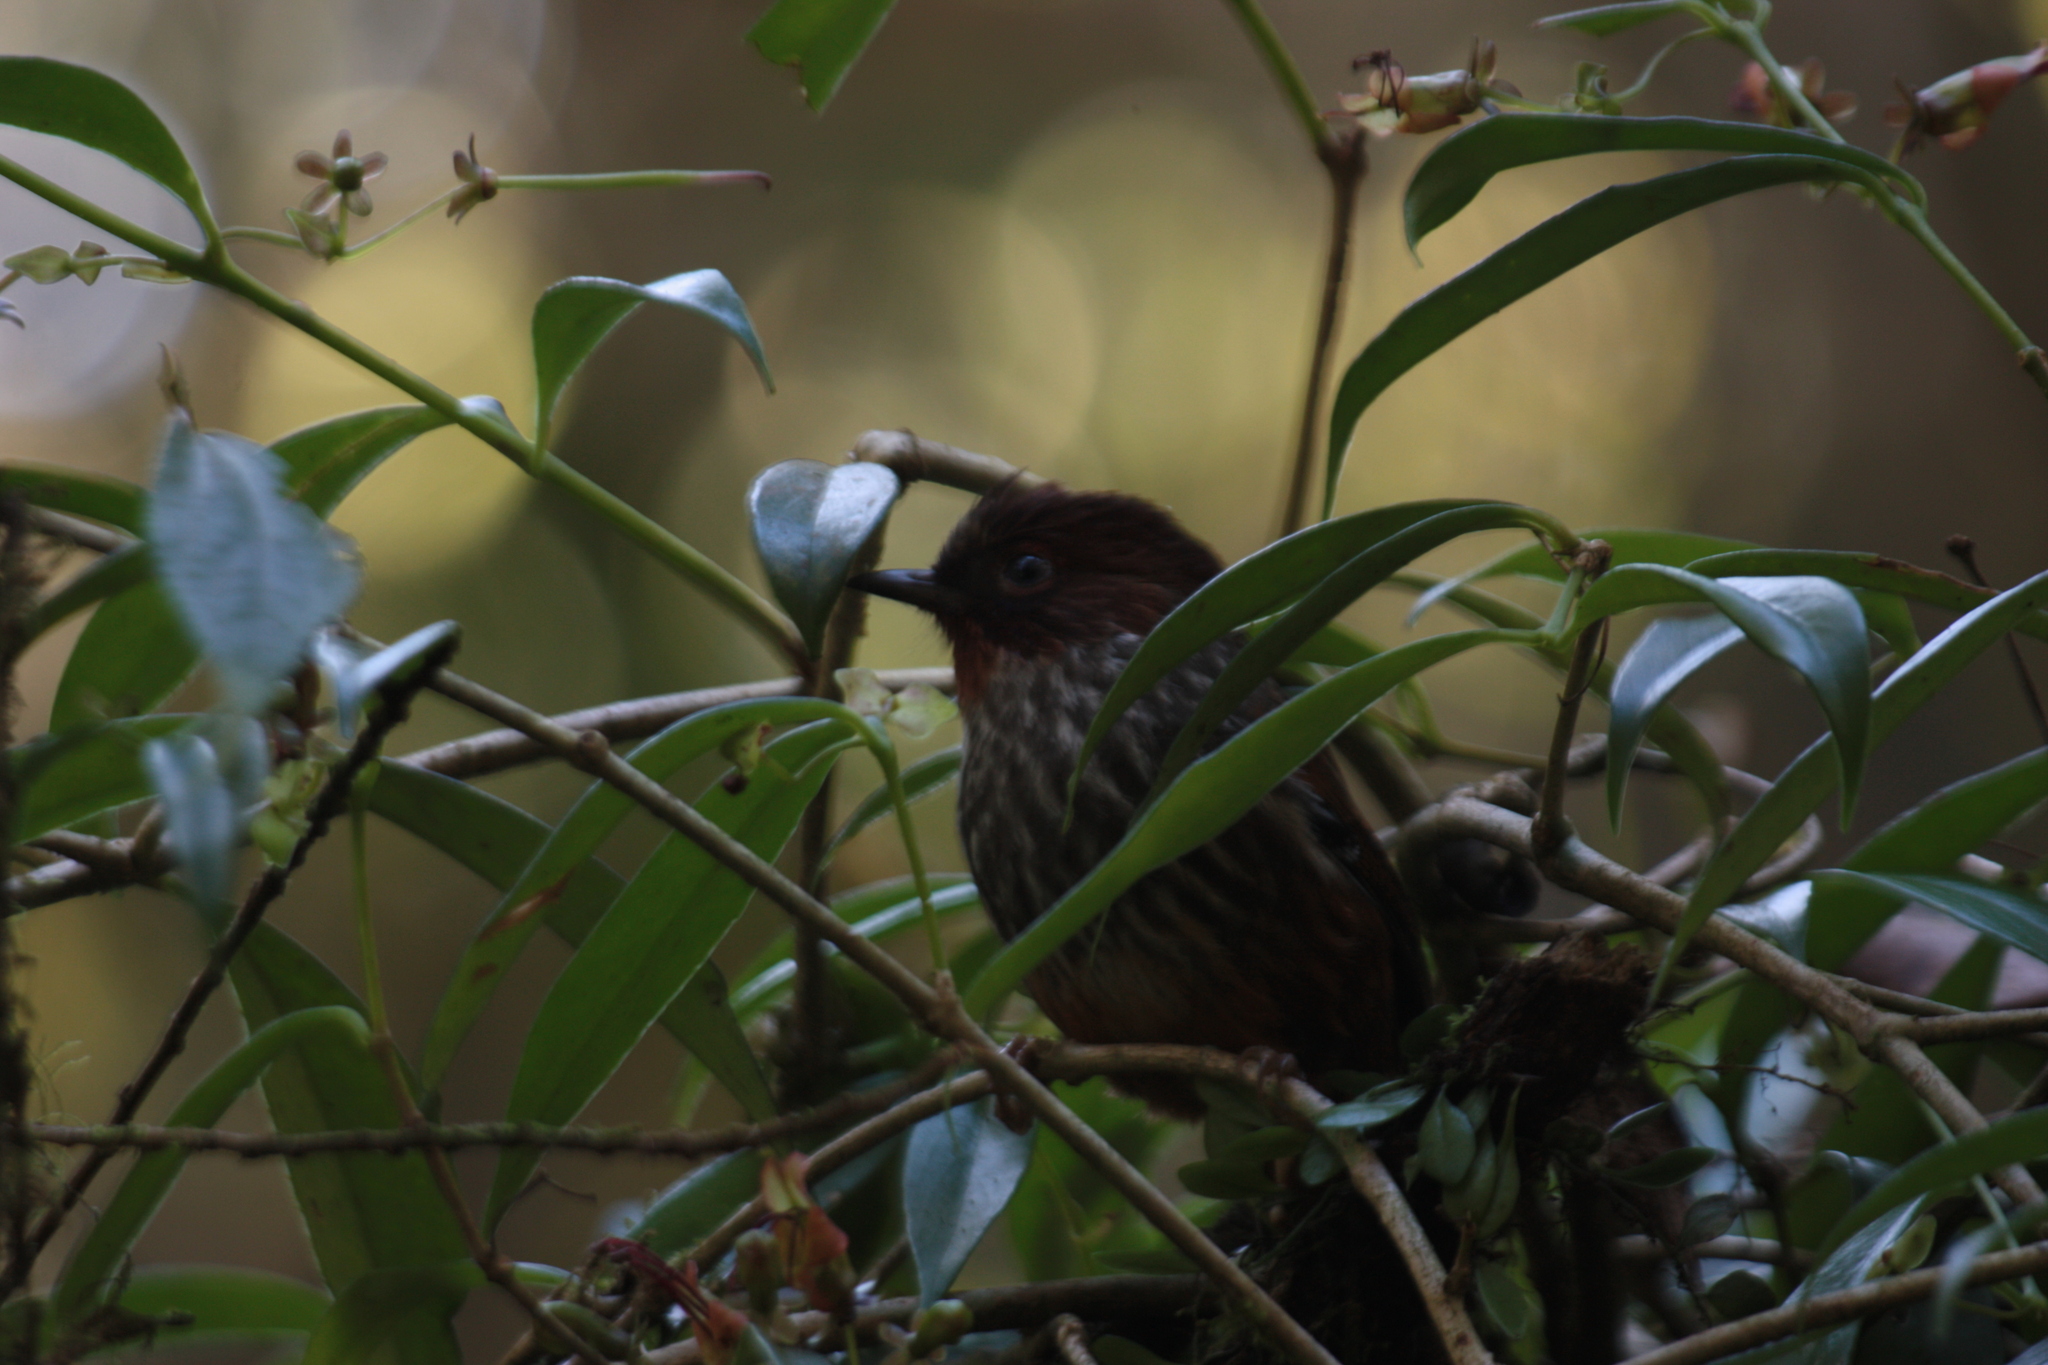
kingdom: Animalia
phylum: Chordata
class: Aves
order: Passeriformes
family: Leiothrichidae
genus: Actinodura
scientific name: Actinodura morrisoniana
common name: Taiwan barwing
